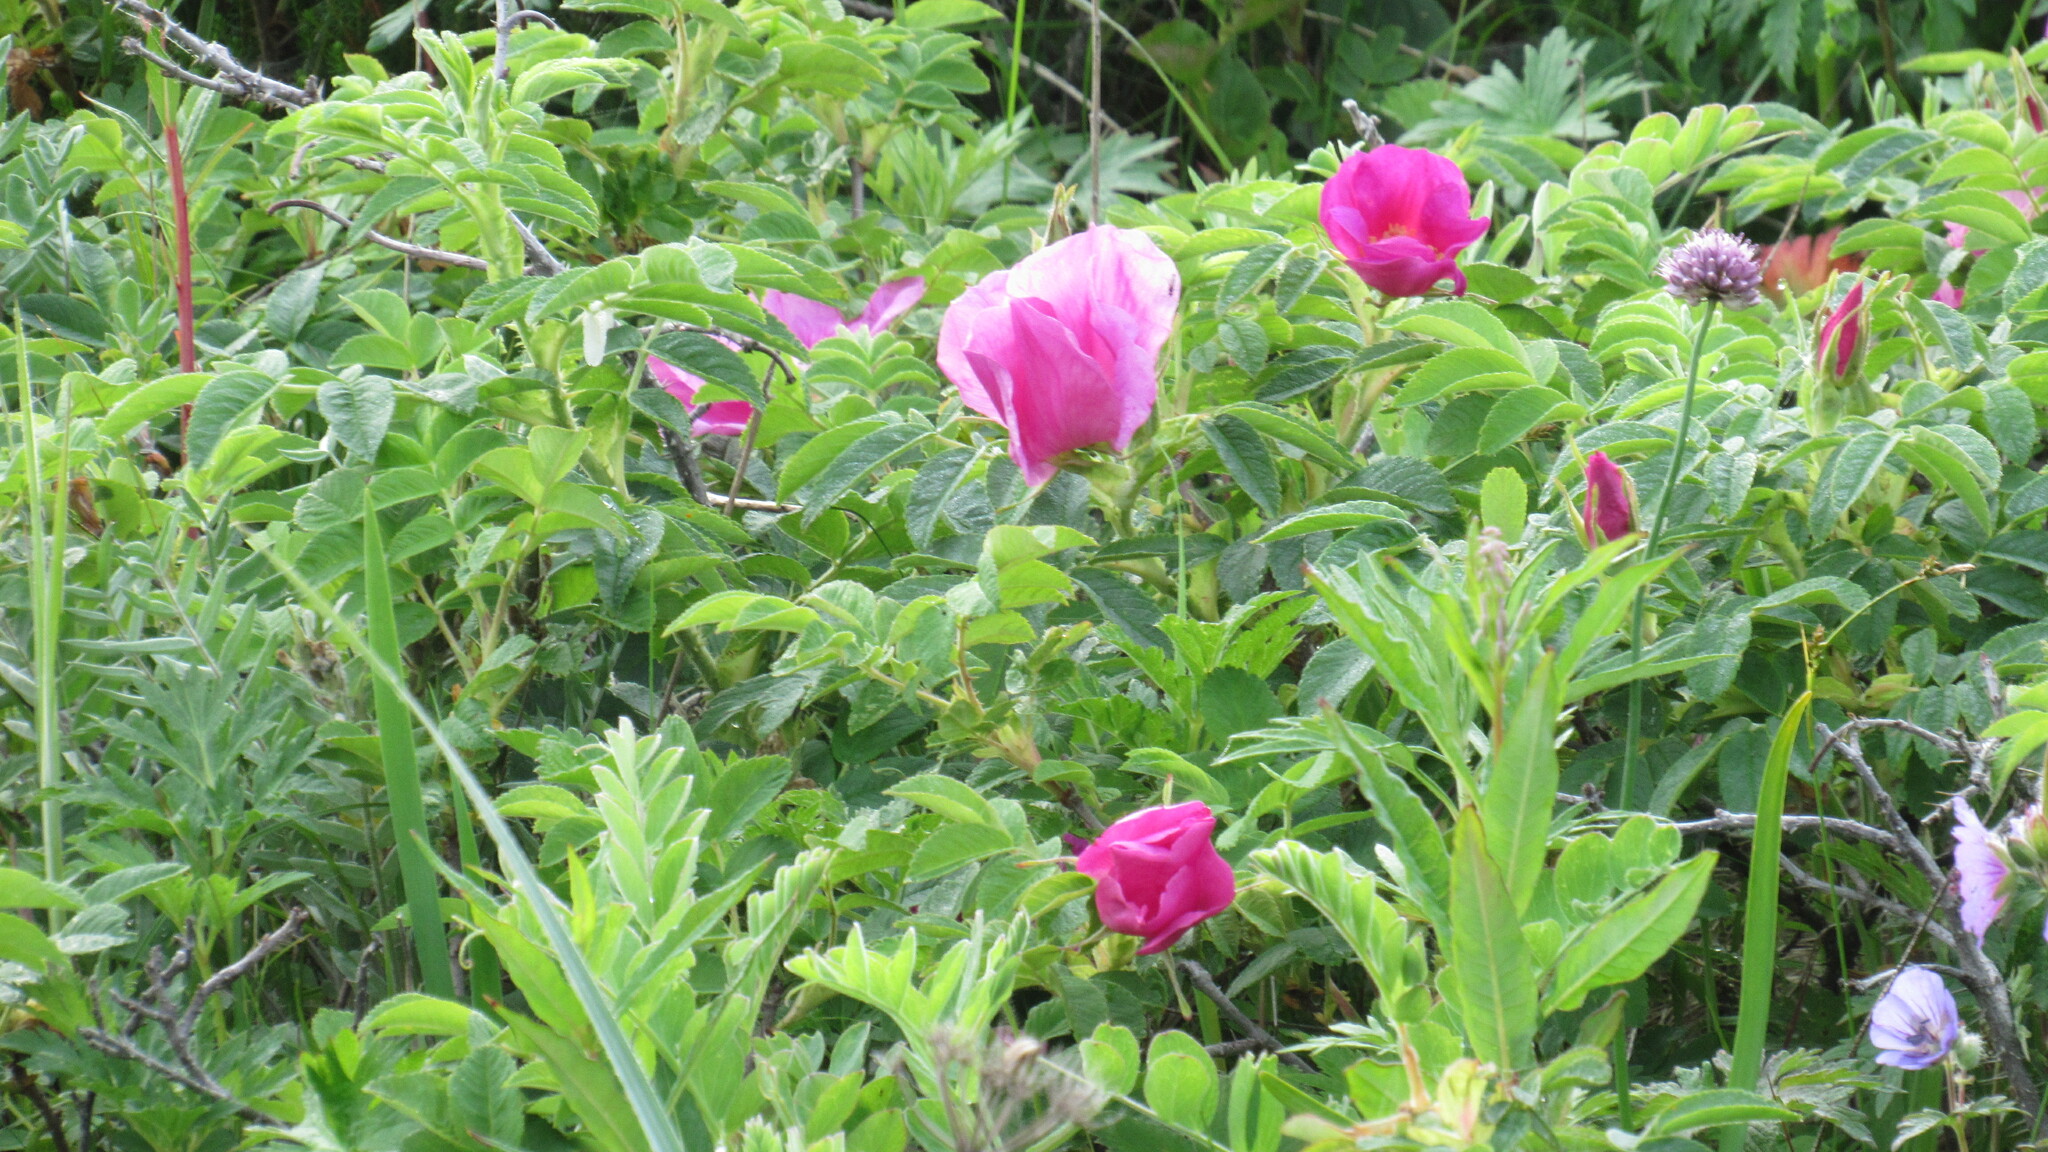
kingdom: Plantae
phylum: Tracheophyta
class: Magnoliopsida
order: Rosales
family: Rosaceae
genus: Rosa
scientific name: Rosa rugosa
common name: Japanese rose
